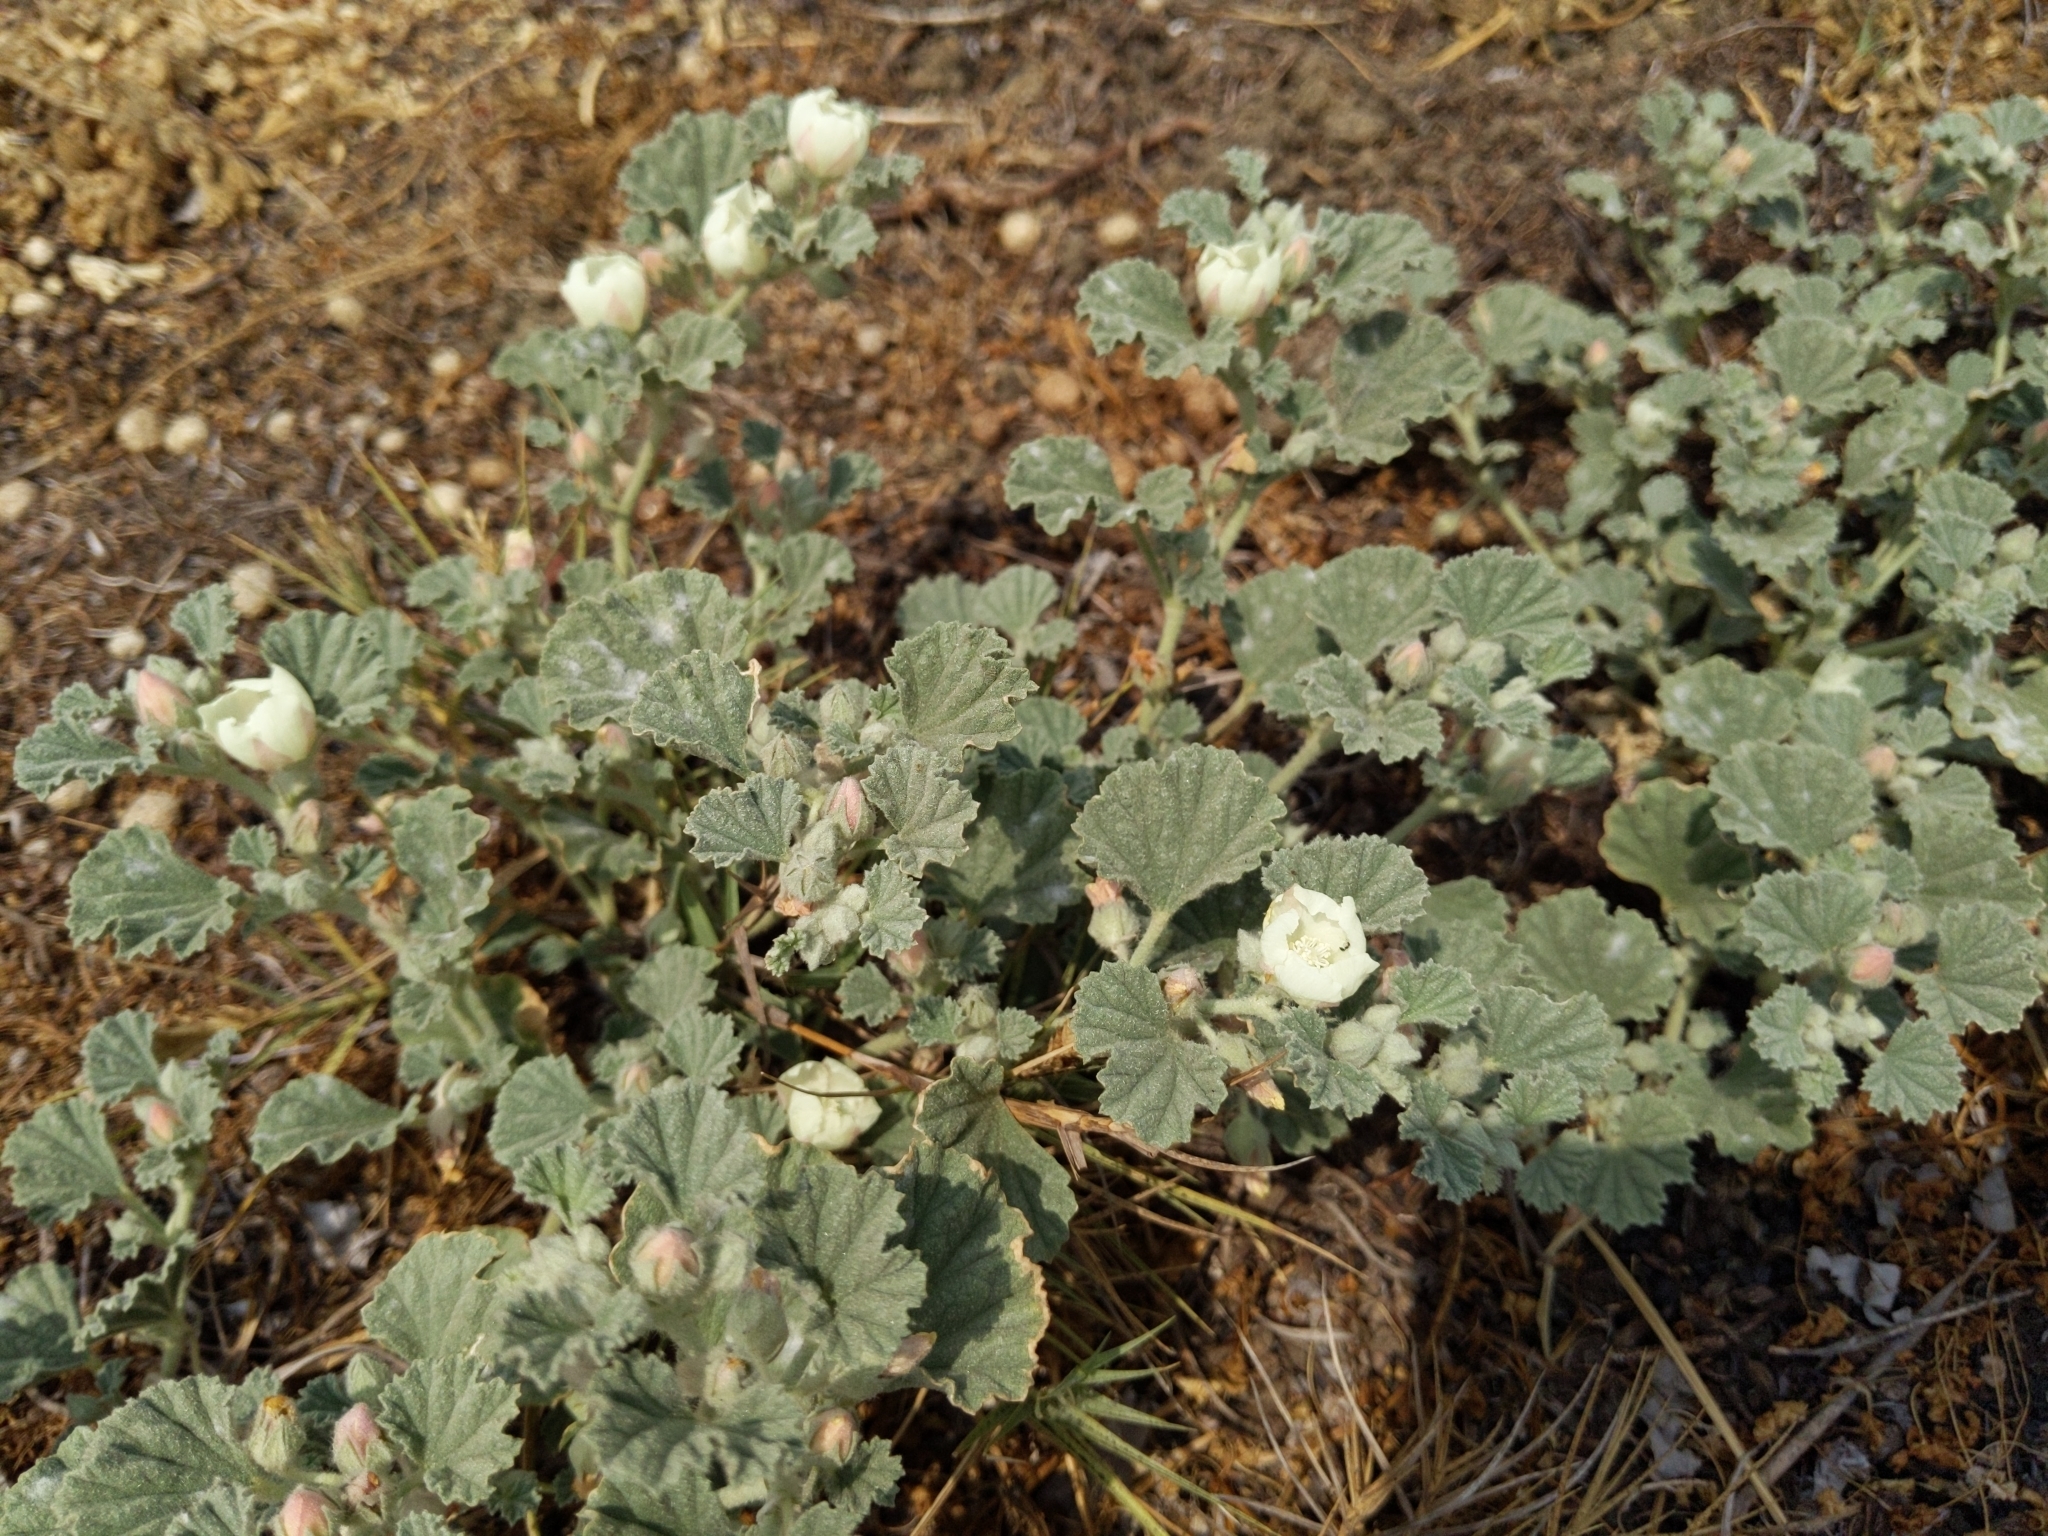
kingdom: Plantae
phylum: Tracheophyta
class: Magnoliopsida
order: Malvales
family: Malvaceae
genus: Malvella
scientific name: Malvella leprosa
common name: Alkali-mallow
